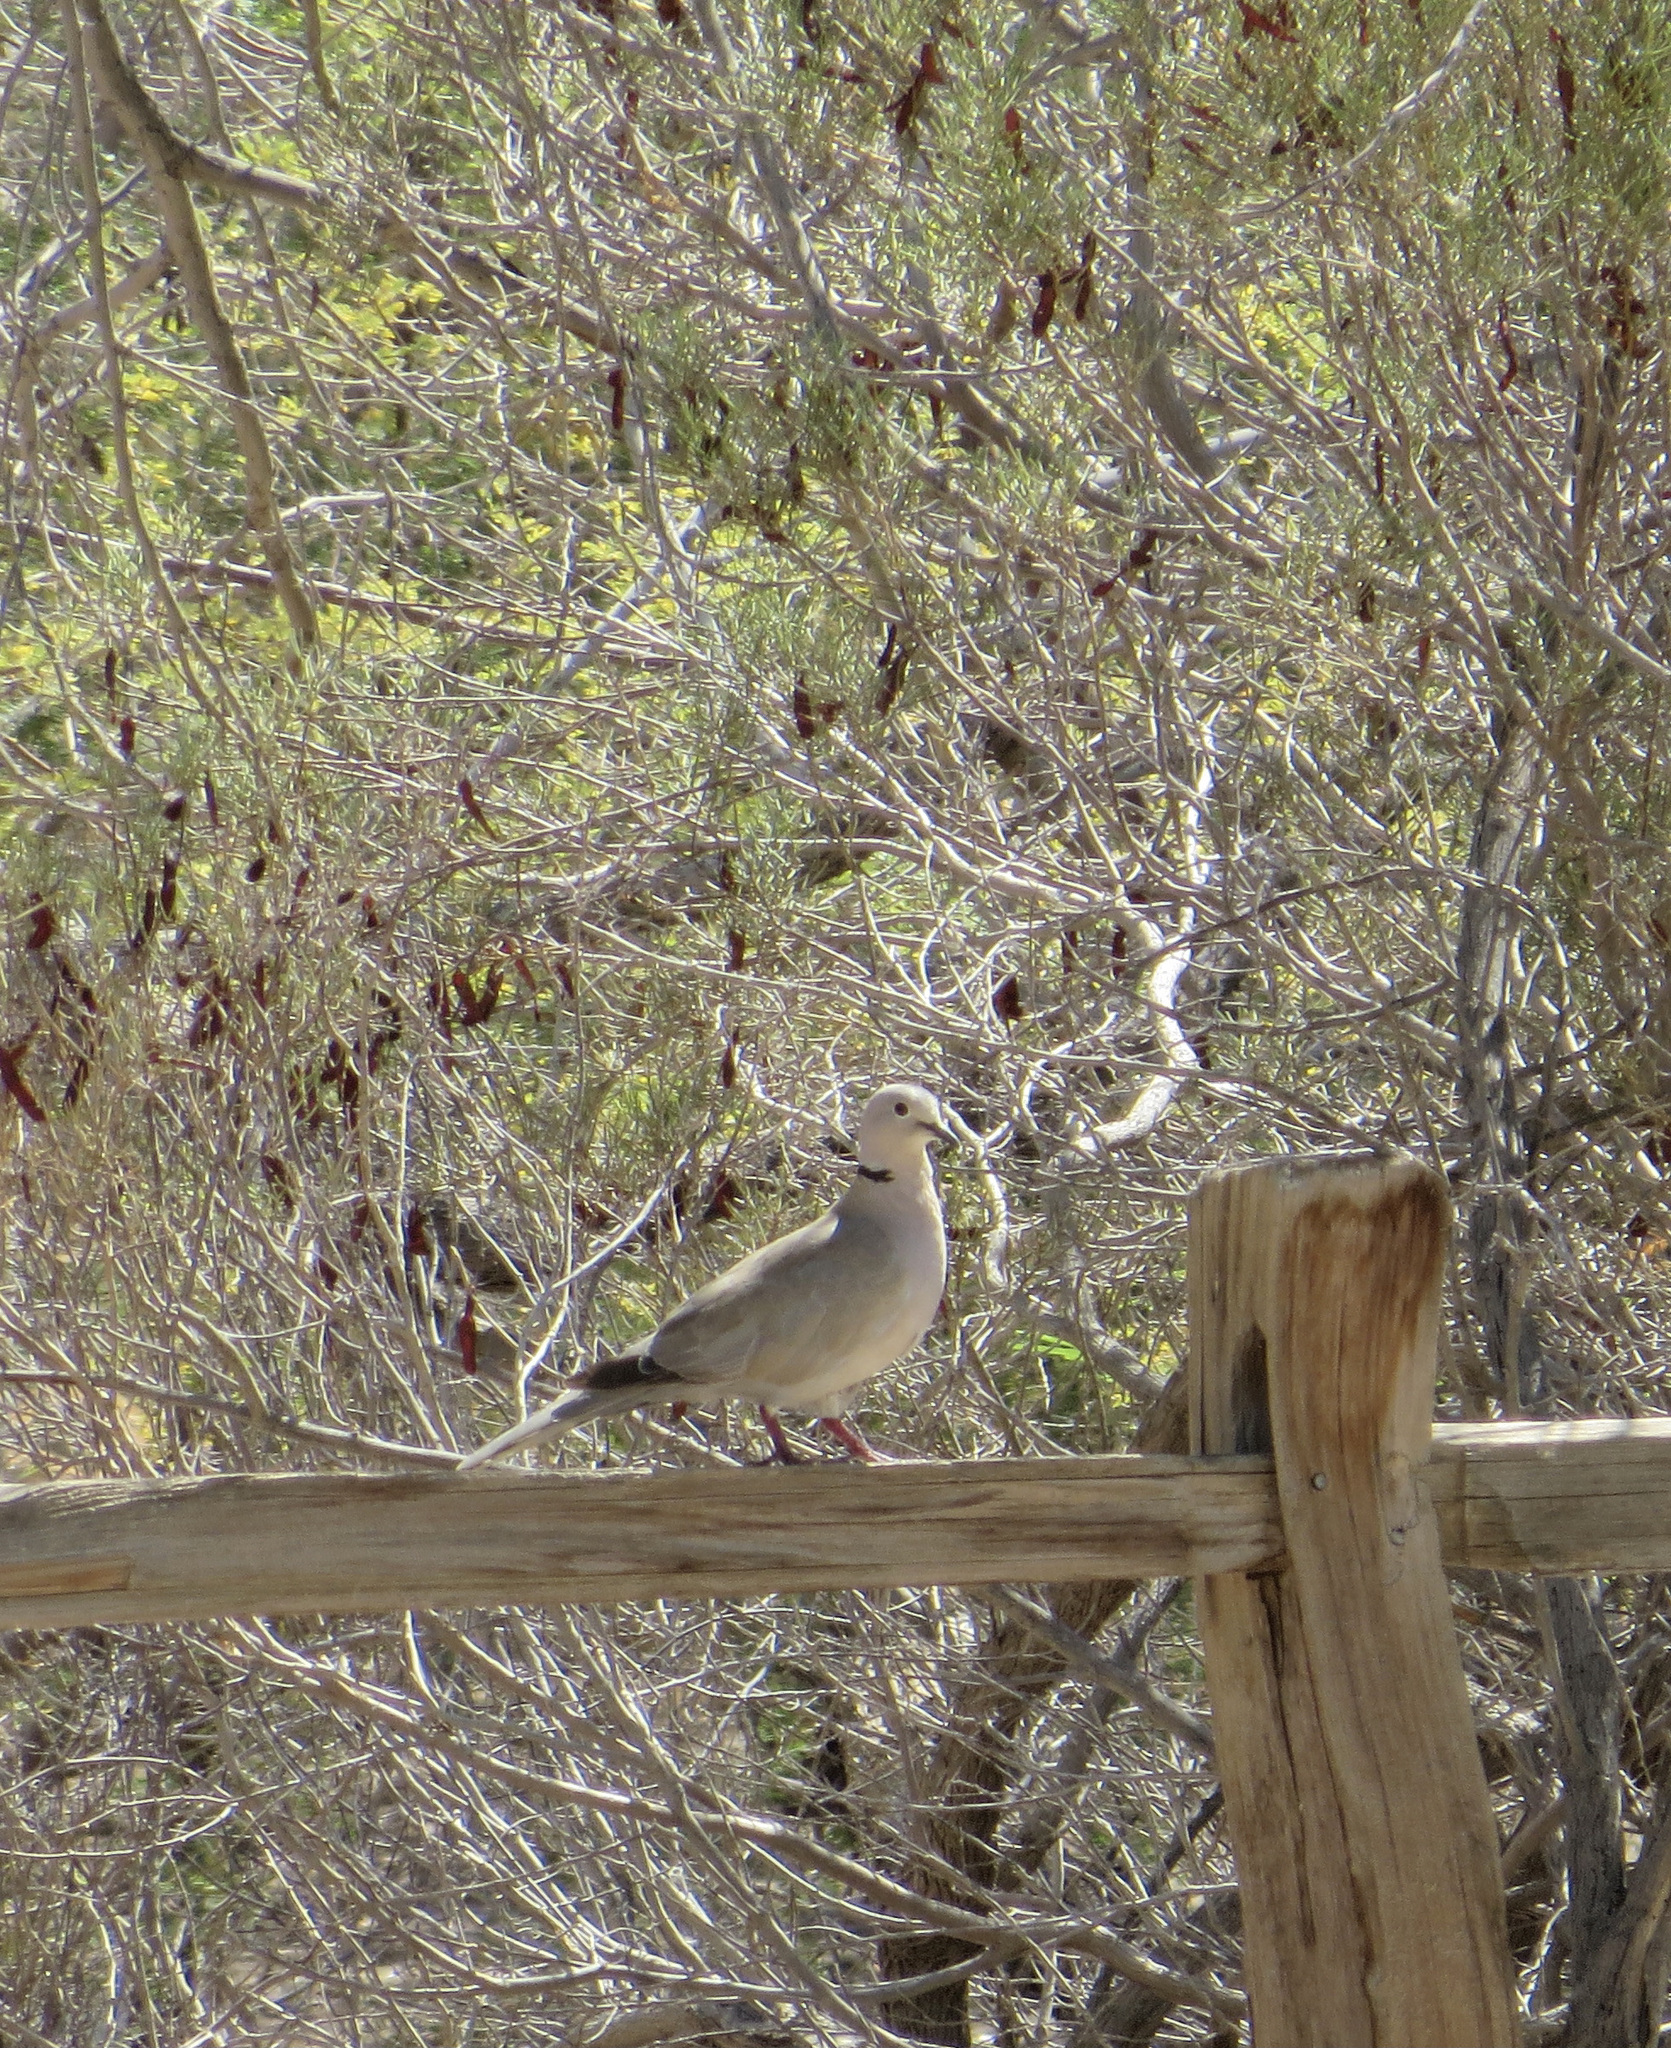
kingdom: Animalia
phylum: Chordata
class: Aves
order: Columbiformes
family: Columbidae
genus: Streptopelia
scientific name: Streptopelia decaocto
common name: Eurasian collared dove
